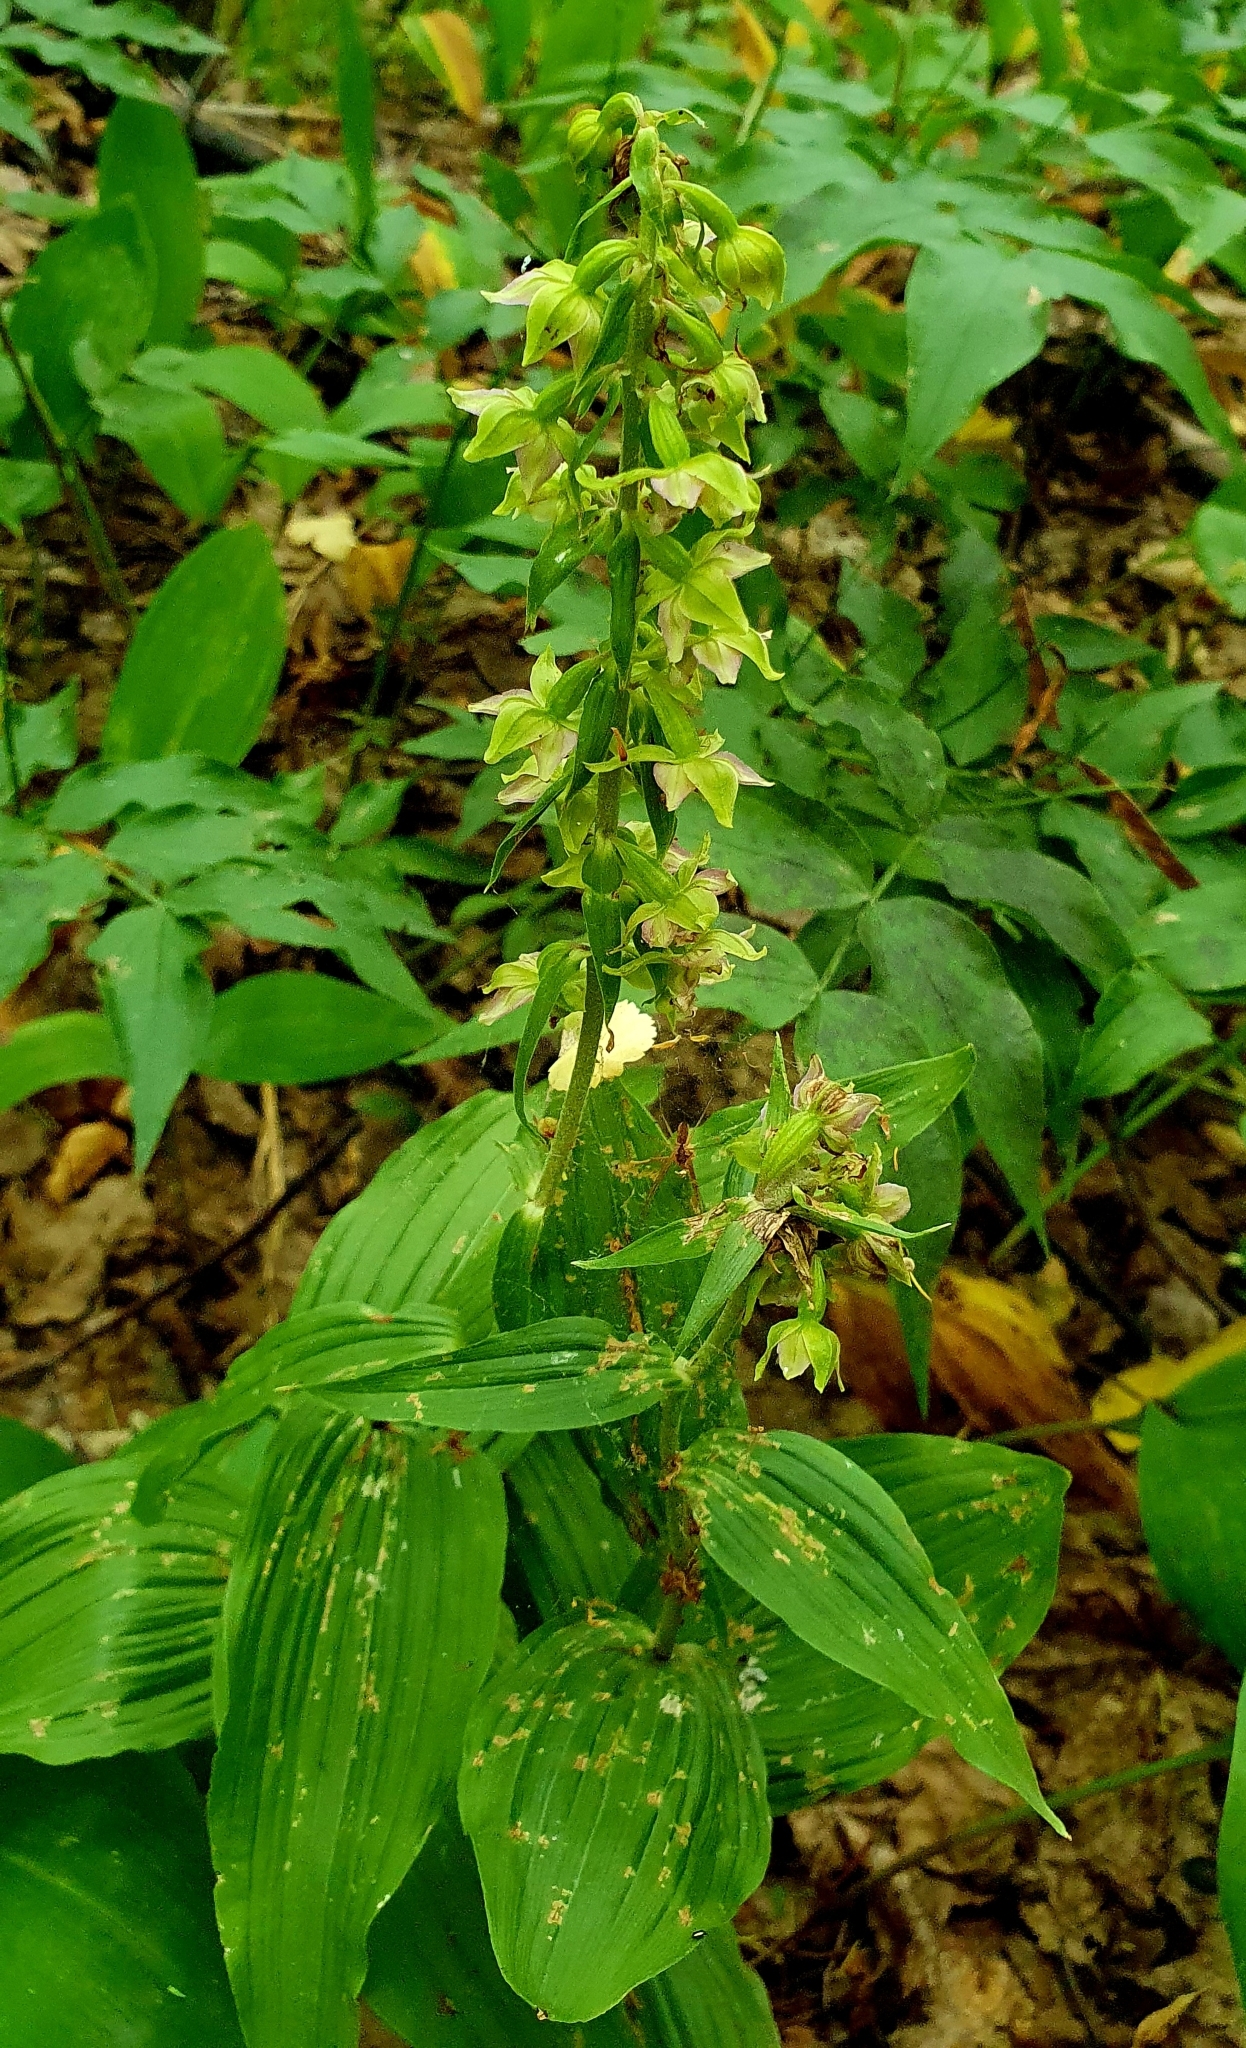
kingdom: Plantae
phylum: Tracheophyta
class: Liliopsida
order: Asparagales
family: Orchidaceae
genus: Epipactis
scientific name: Epipactis helleborine
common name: Broad-leaved helleborine
